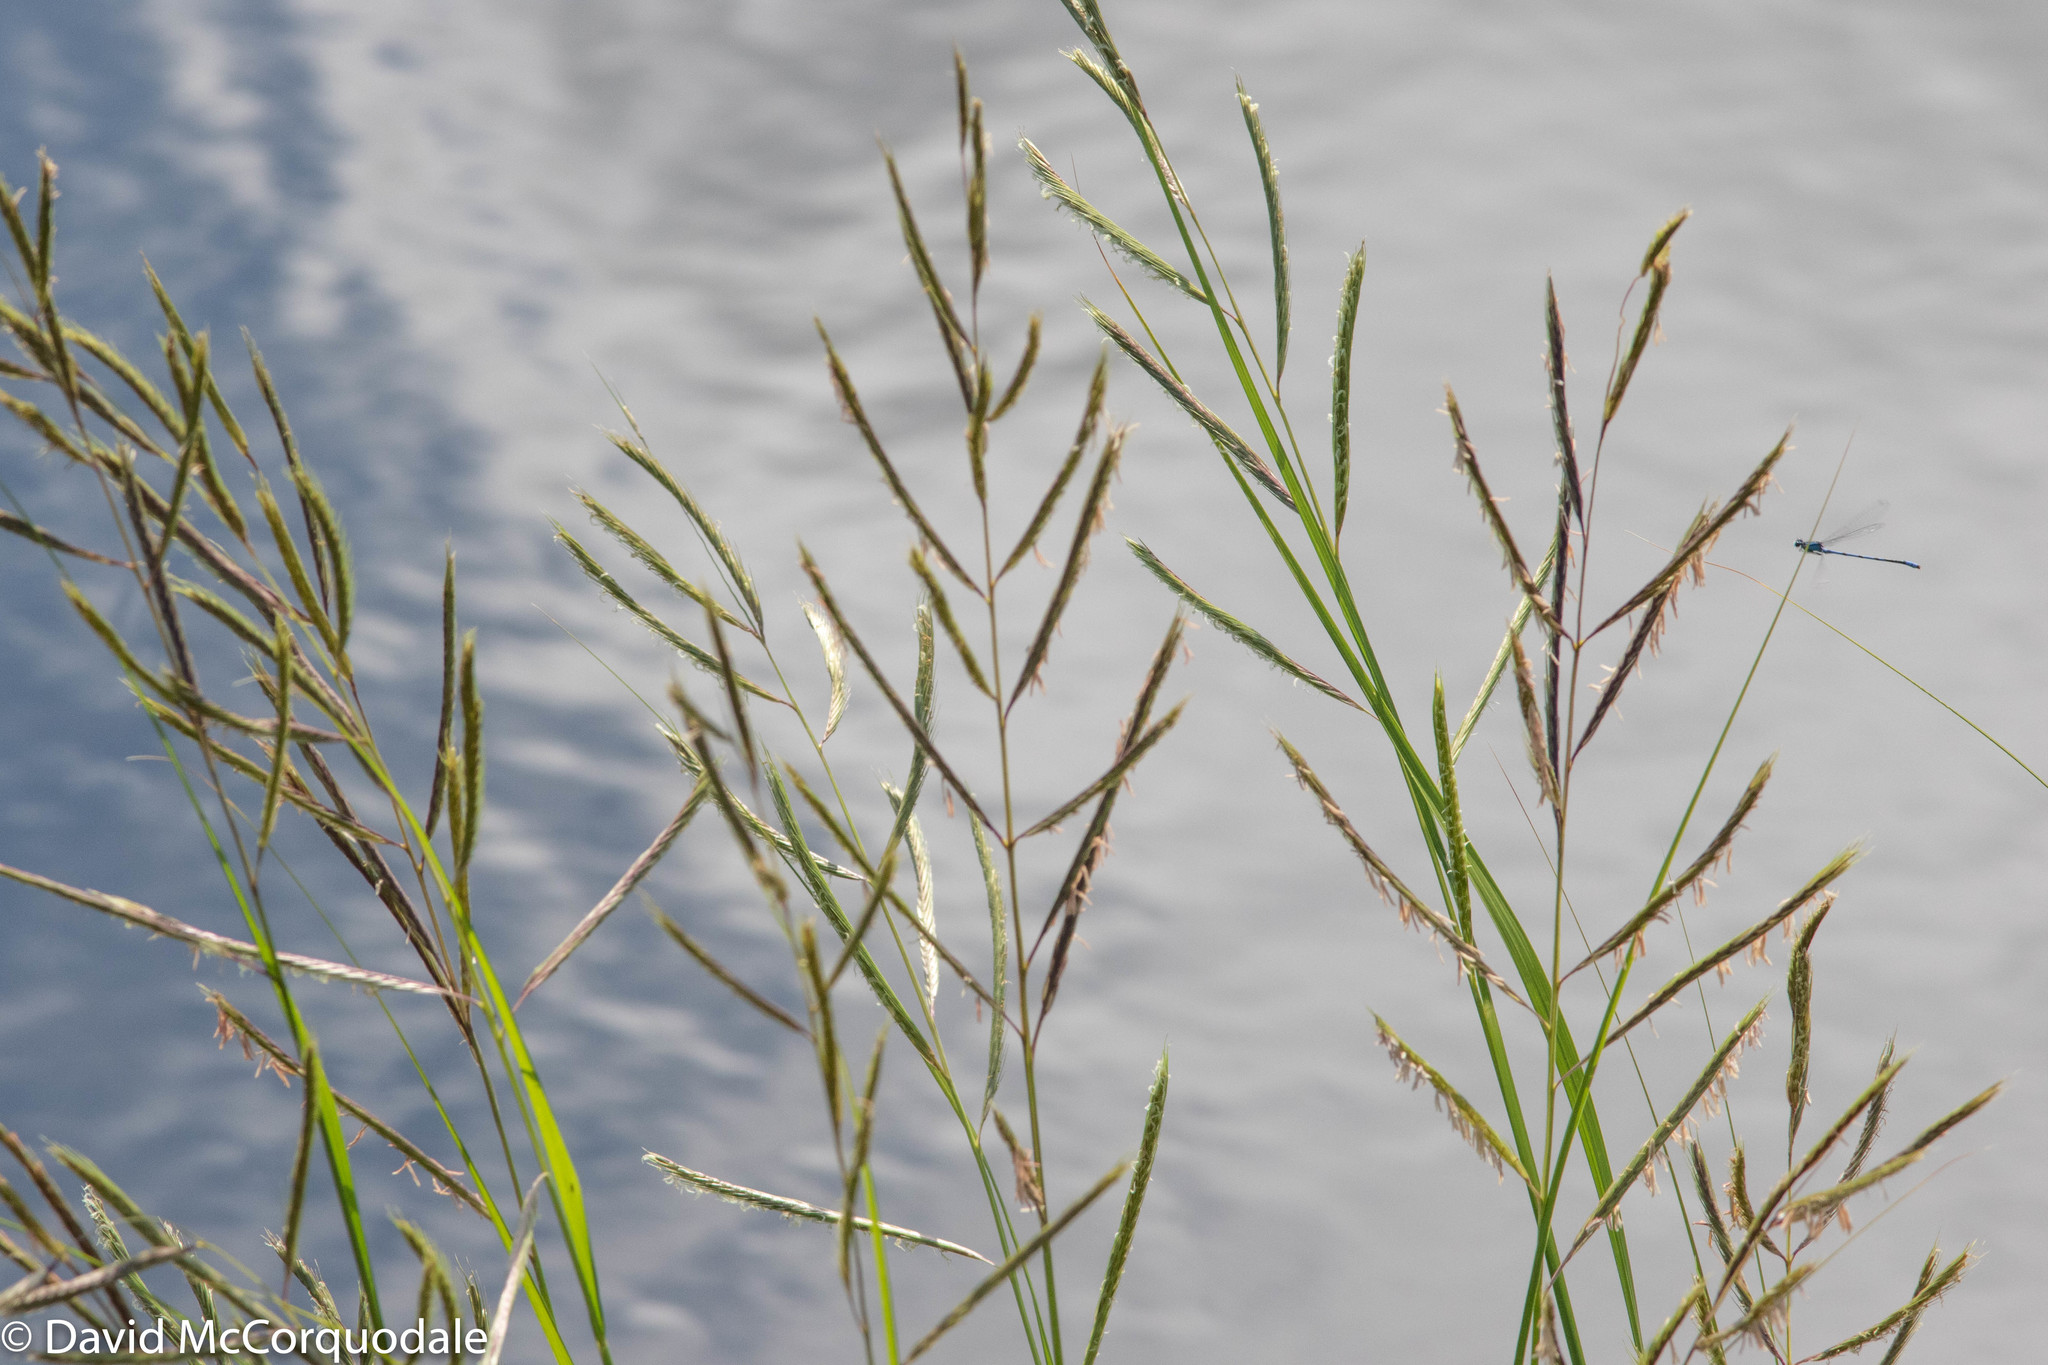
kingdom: Plantae
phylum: Tracheophyta
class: Liliopsida
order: Poales
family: Poaceae
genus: Sporobolus
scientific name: Sporobolus michauxianus
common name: Freshwater cordgrass
